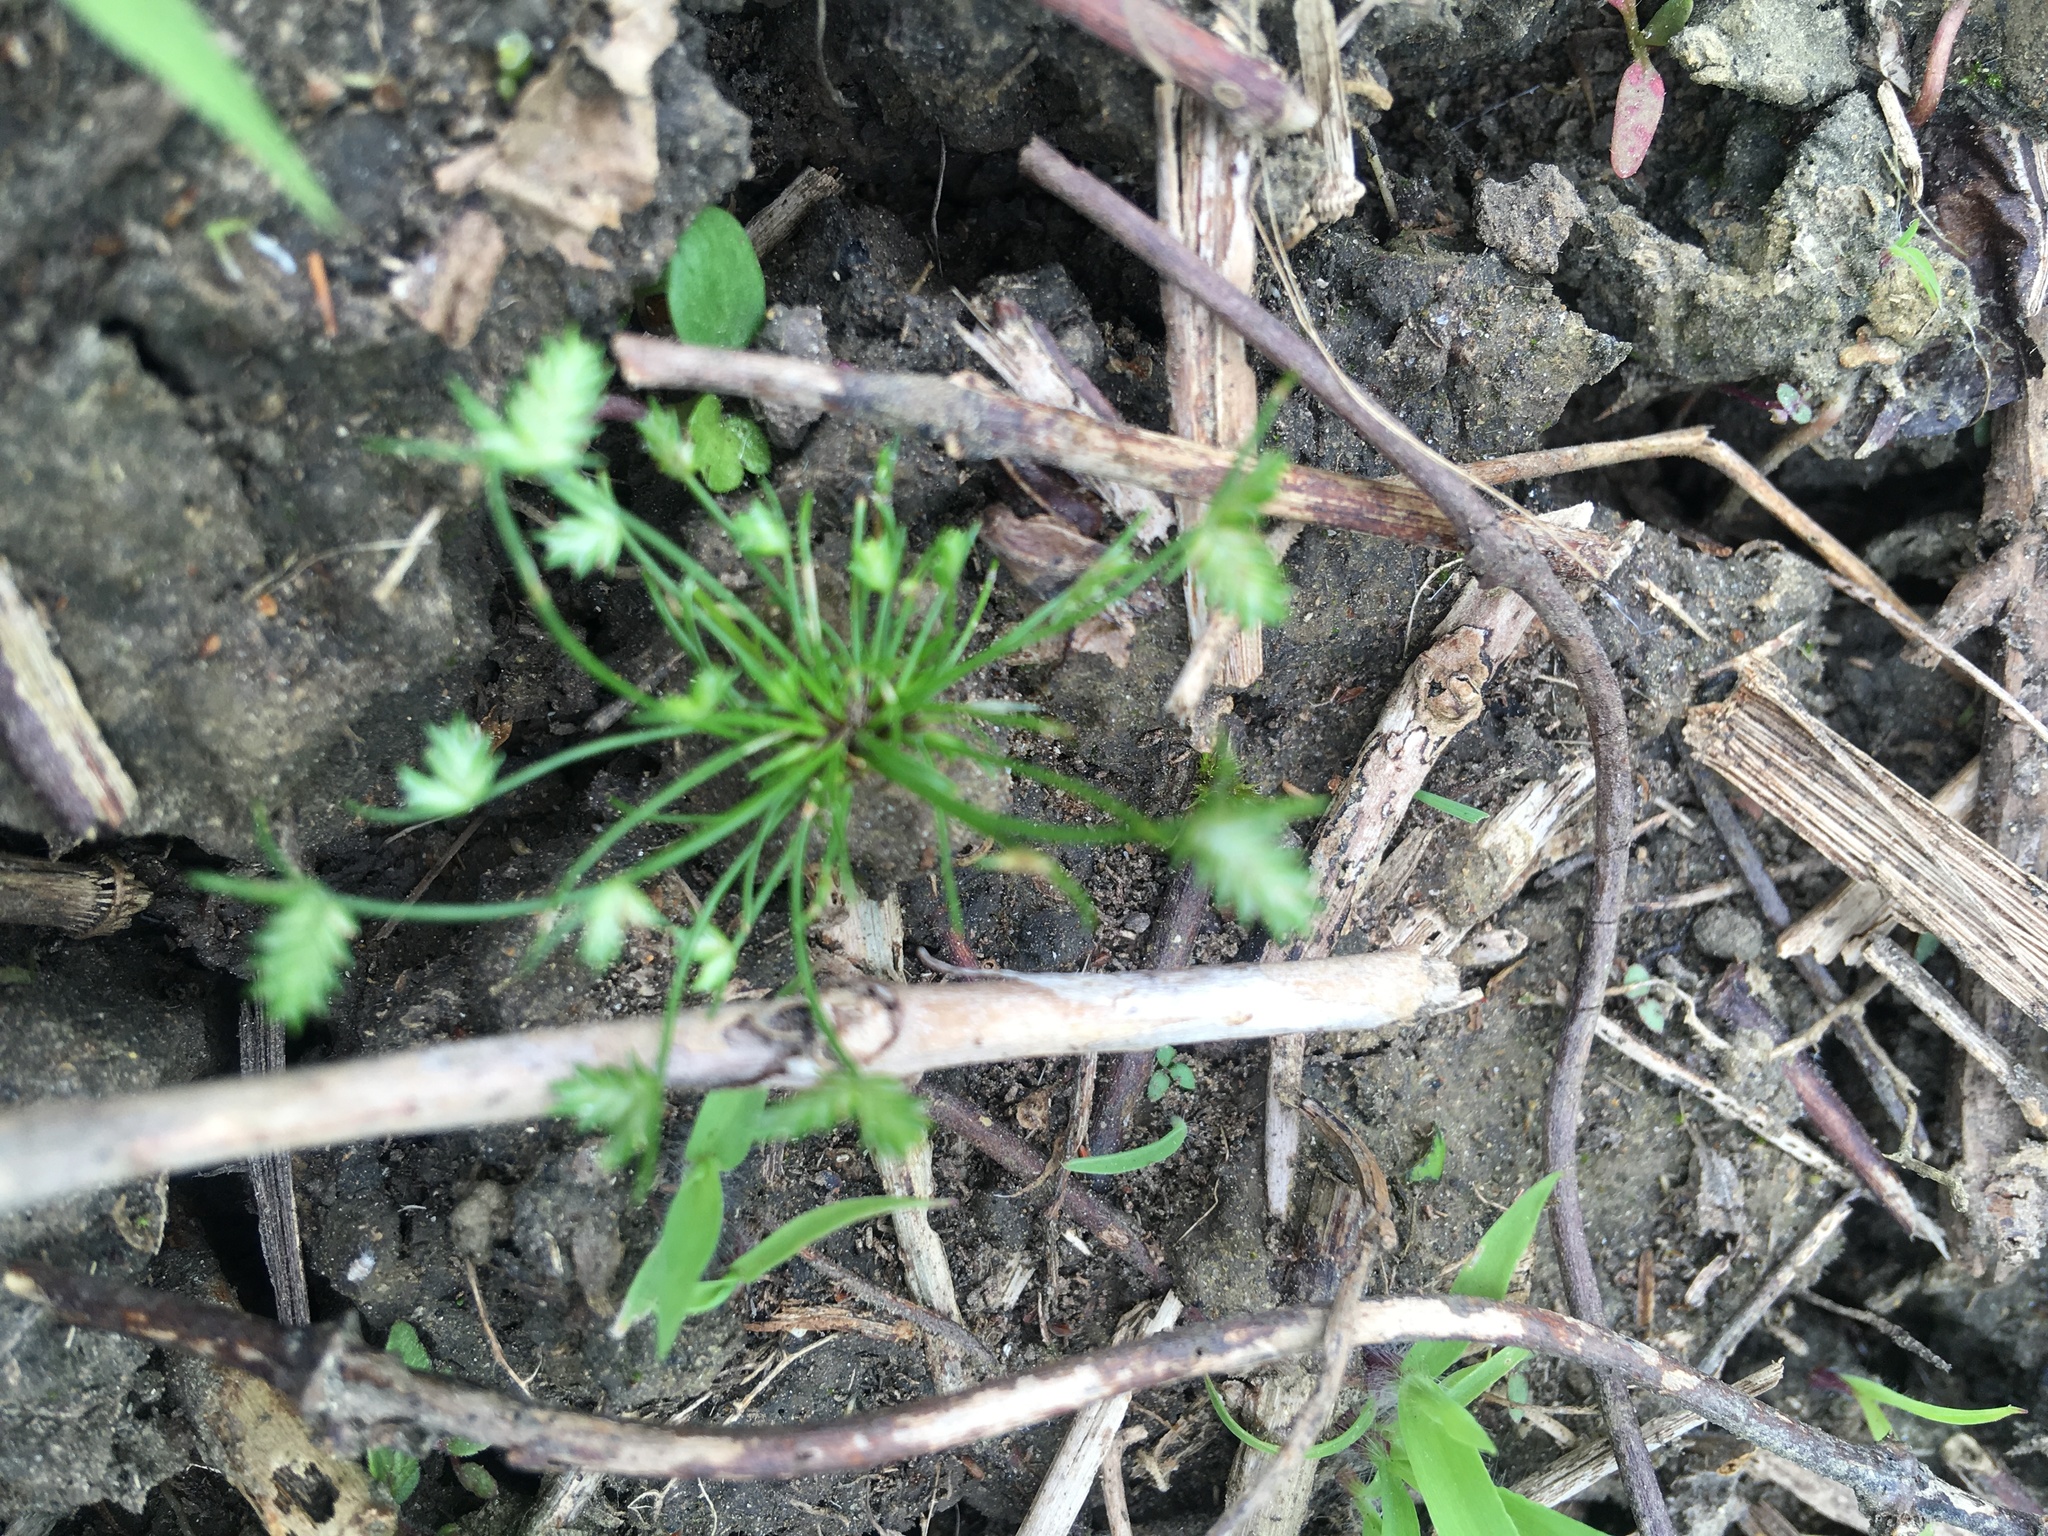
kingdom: Plantae
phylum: Tracheophyta
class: Liliopsida
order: Poales
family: Cyperaceae
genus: Isolepis
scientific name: Isolepis levynsiana
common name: Sedge
